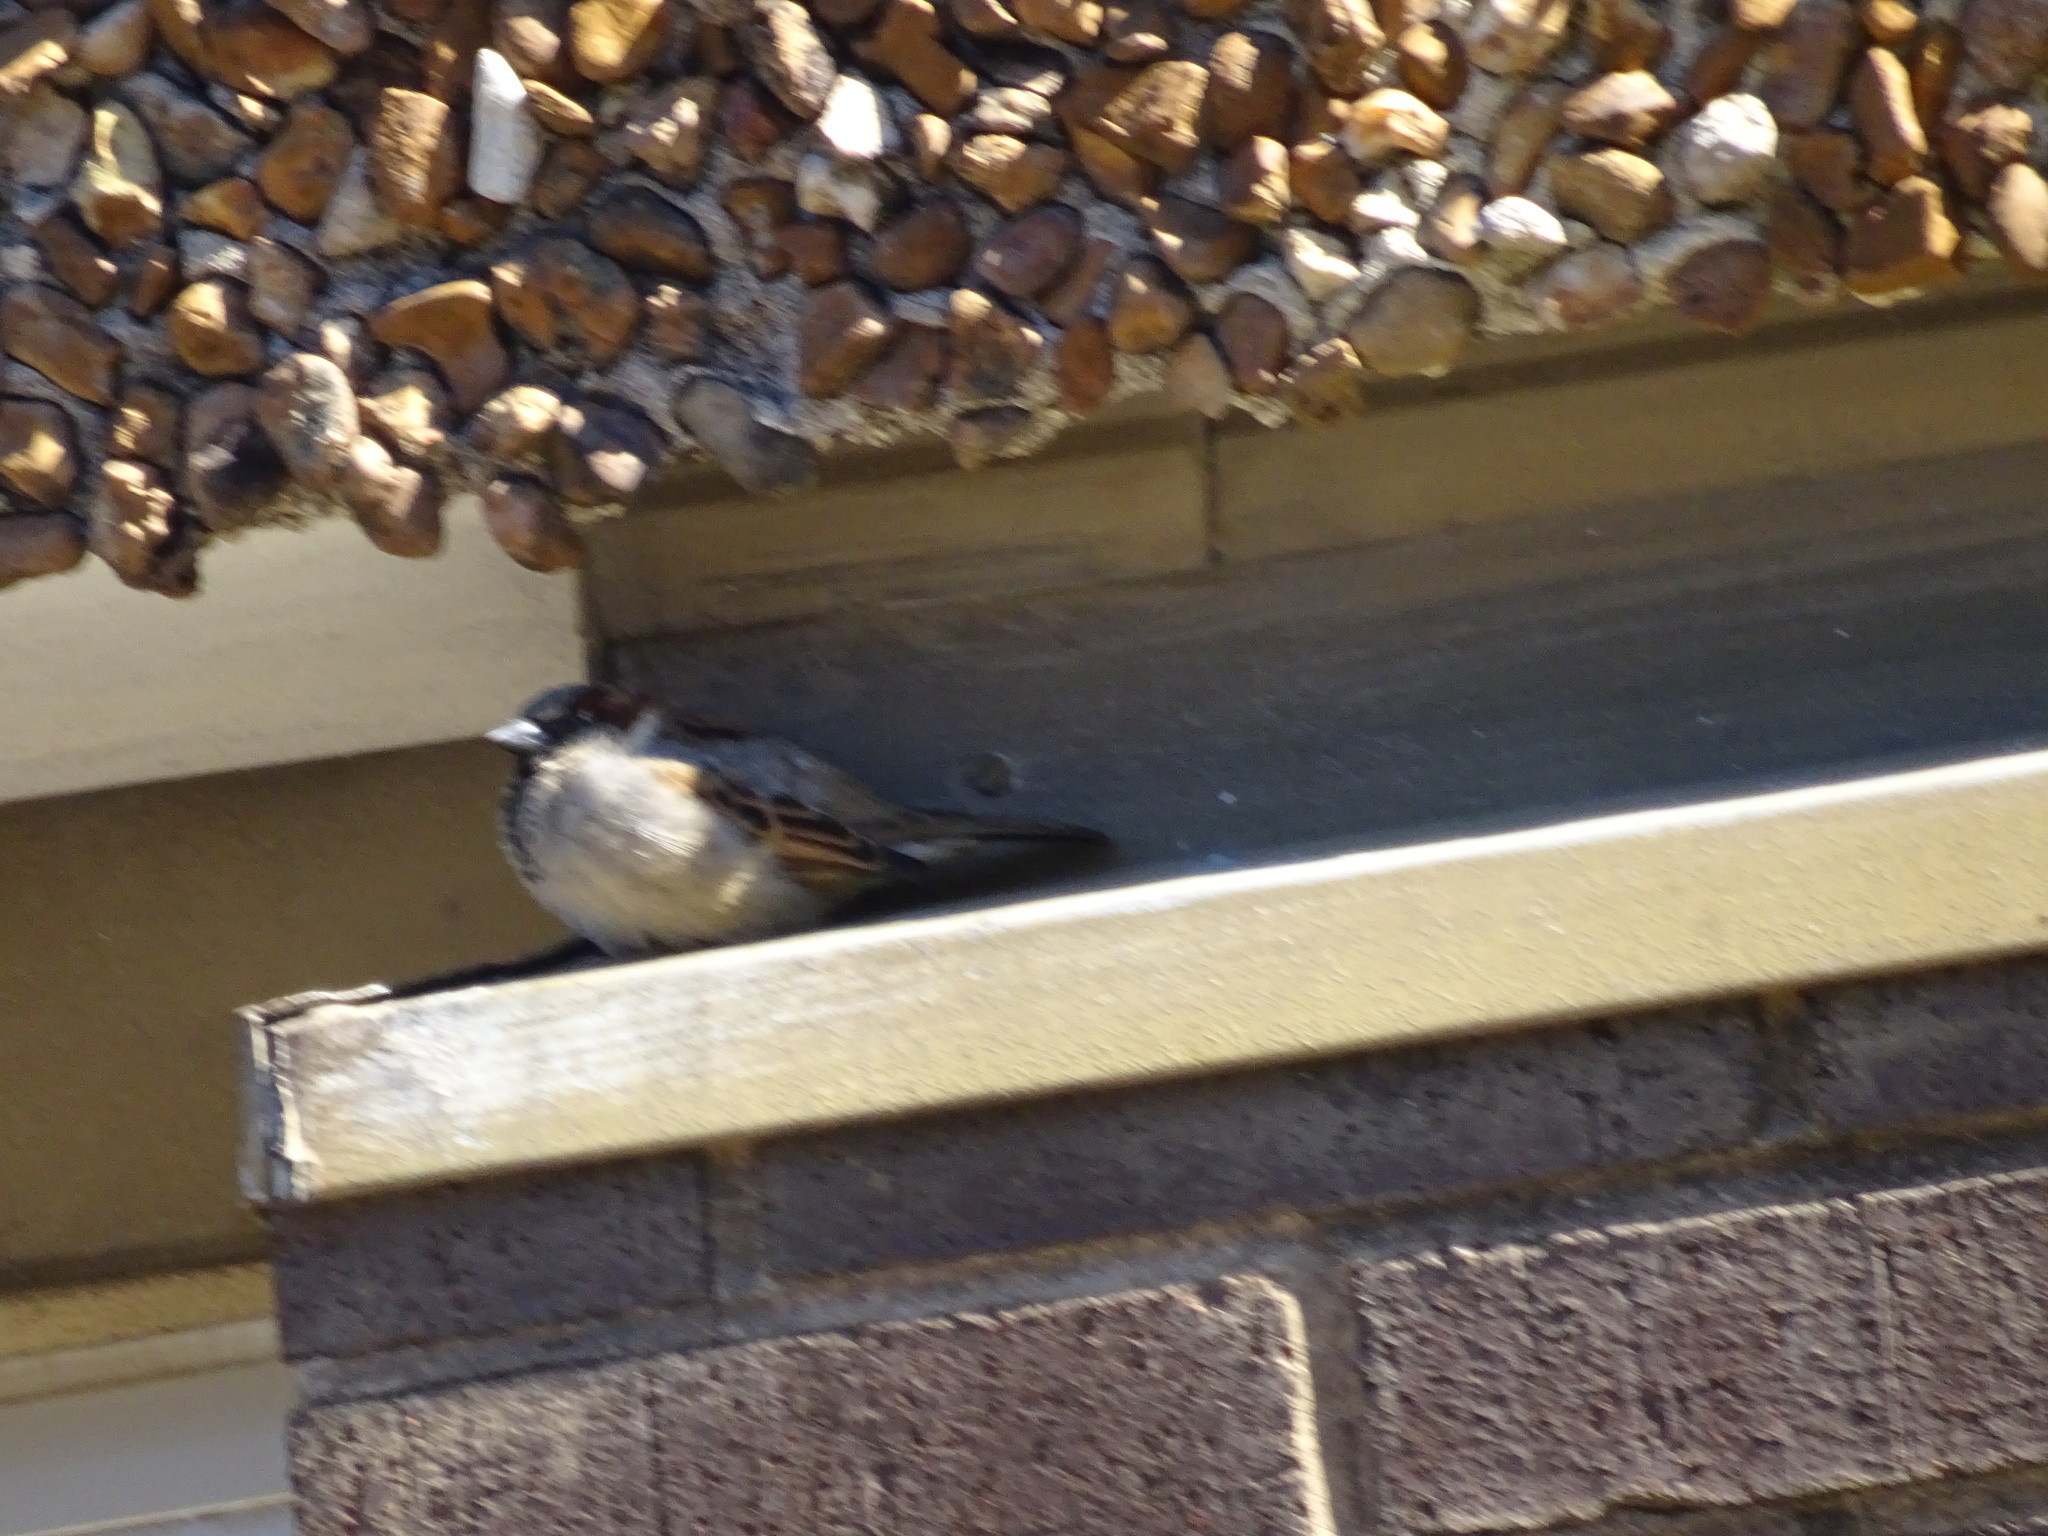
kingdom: Animalia
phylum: Chordata
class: Aves
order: Passeriformes
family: Passeridae
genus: Passer
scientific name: Passer domesticus
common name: House sparrow
